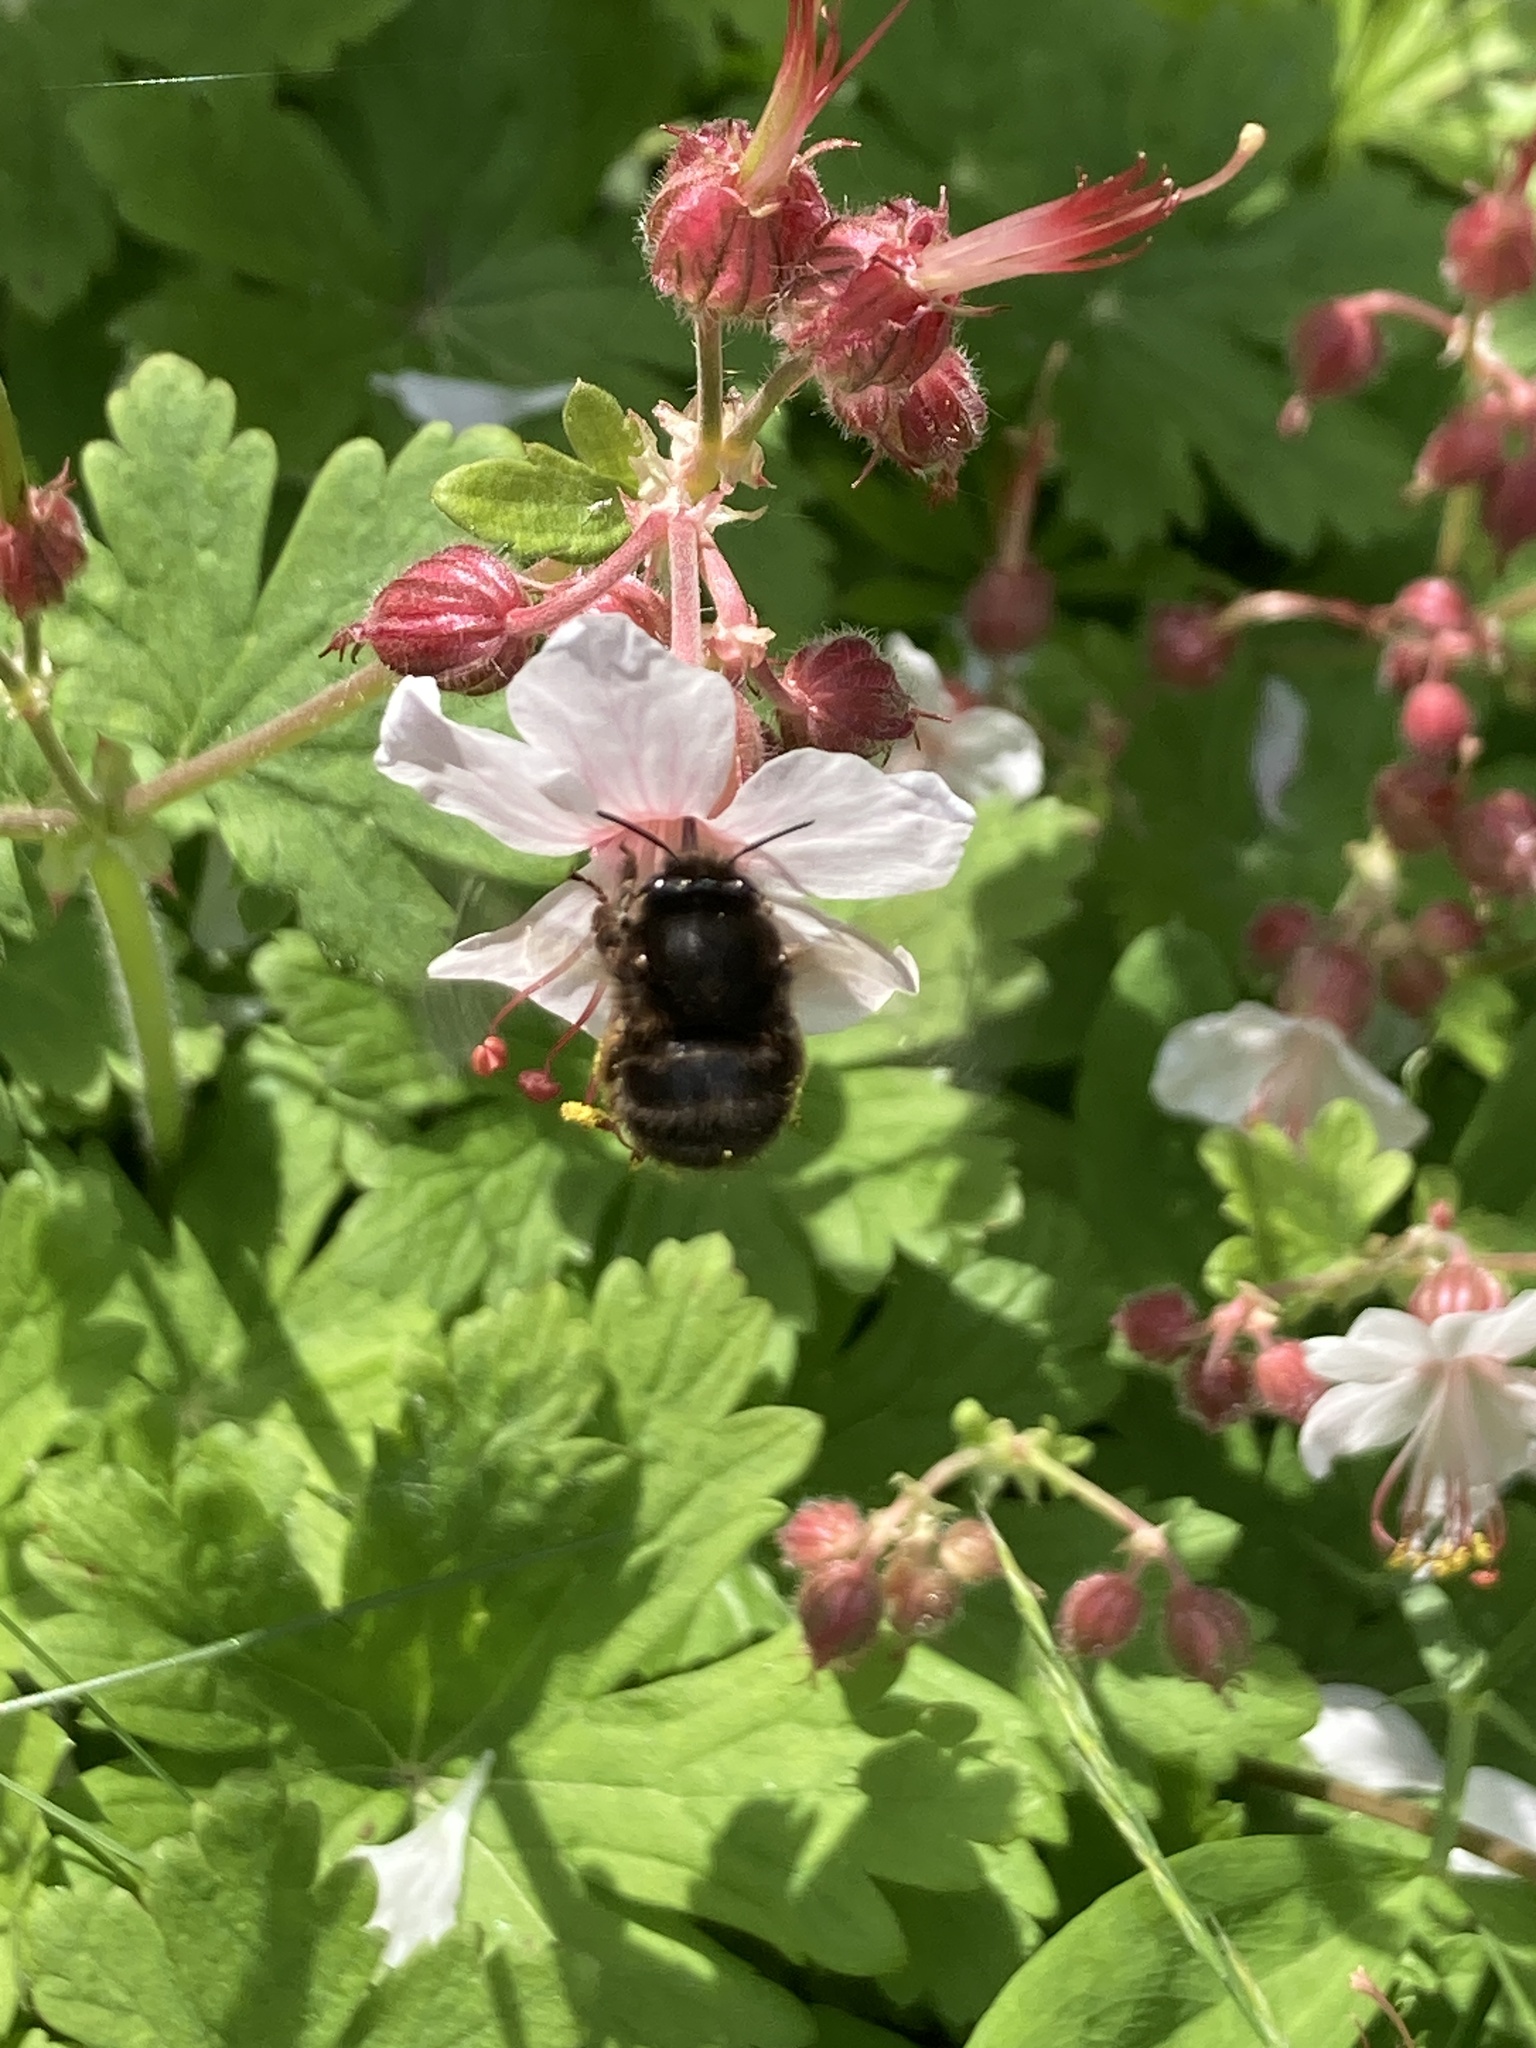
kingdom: Animalia
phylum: Arthropoda
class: Insecta
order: Hymenoptera
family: Apidae
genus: Anthophora
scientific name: Anthophora plumipes
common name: Hairy-footed flower bee
